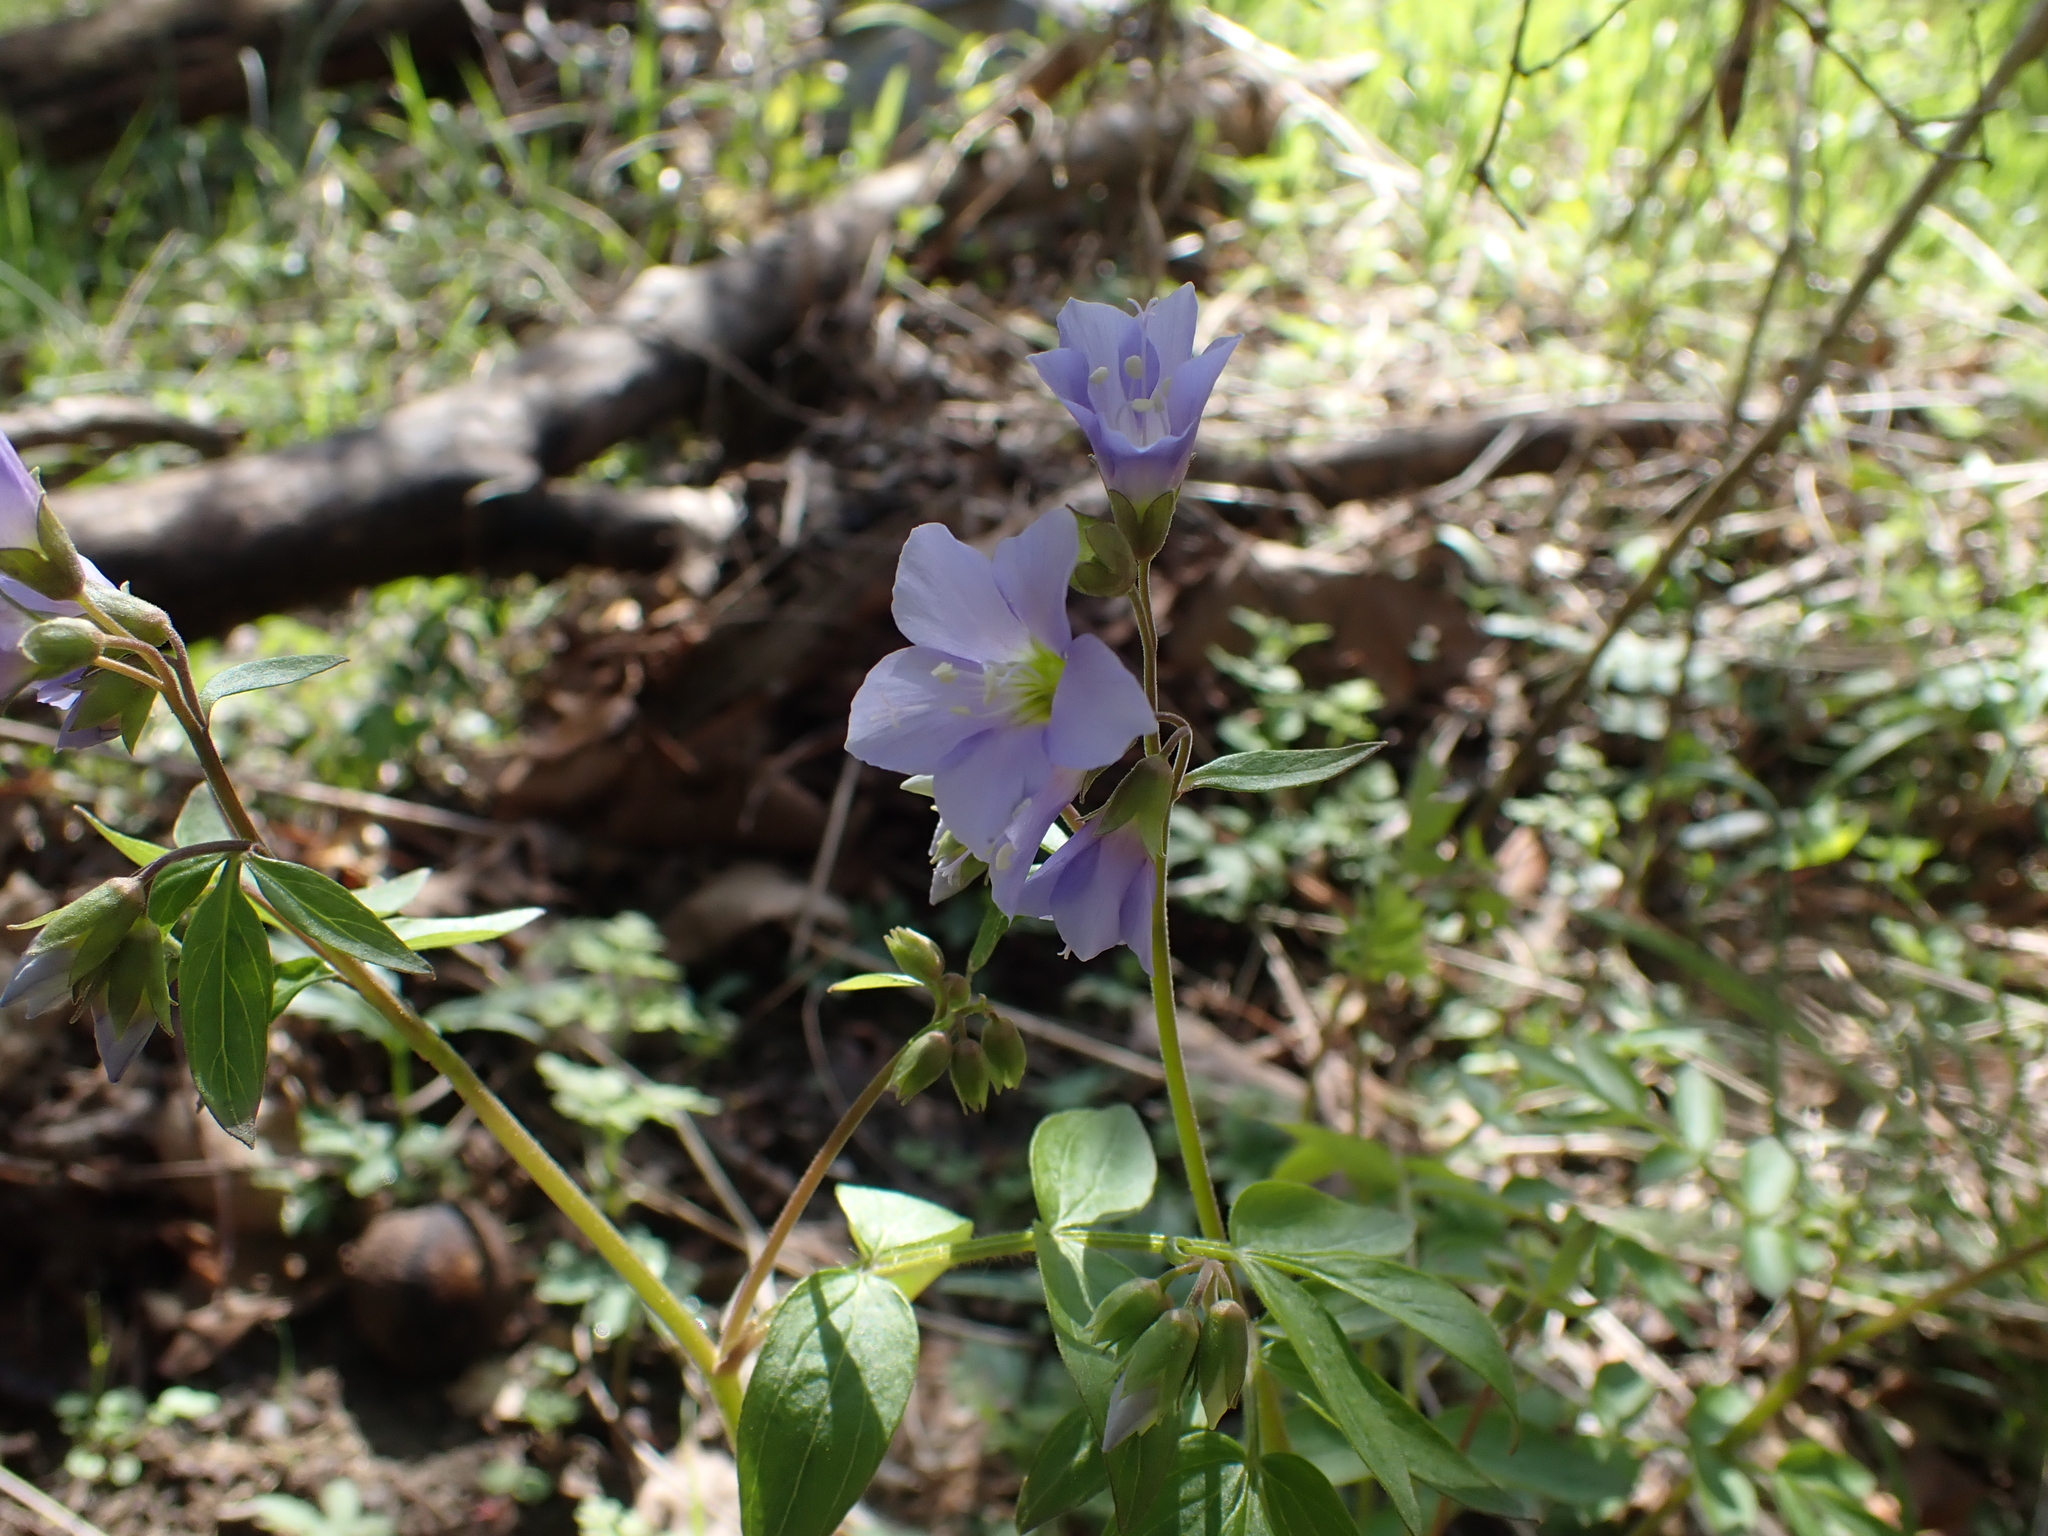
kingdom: Plantae
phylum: Tracheophyta
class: Magnoliopsida
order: Ericales
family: Polemoniaceae
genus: Polemonium
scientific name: Polemonium reptans
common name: Creeping jacob's-ladder
